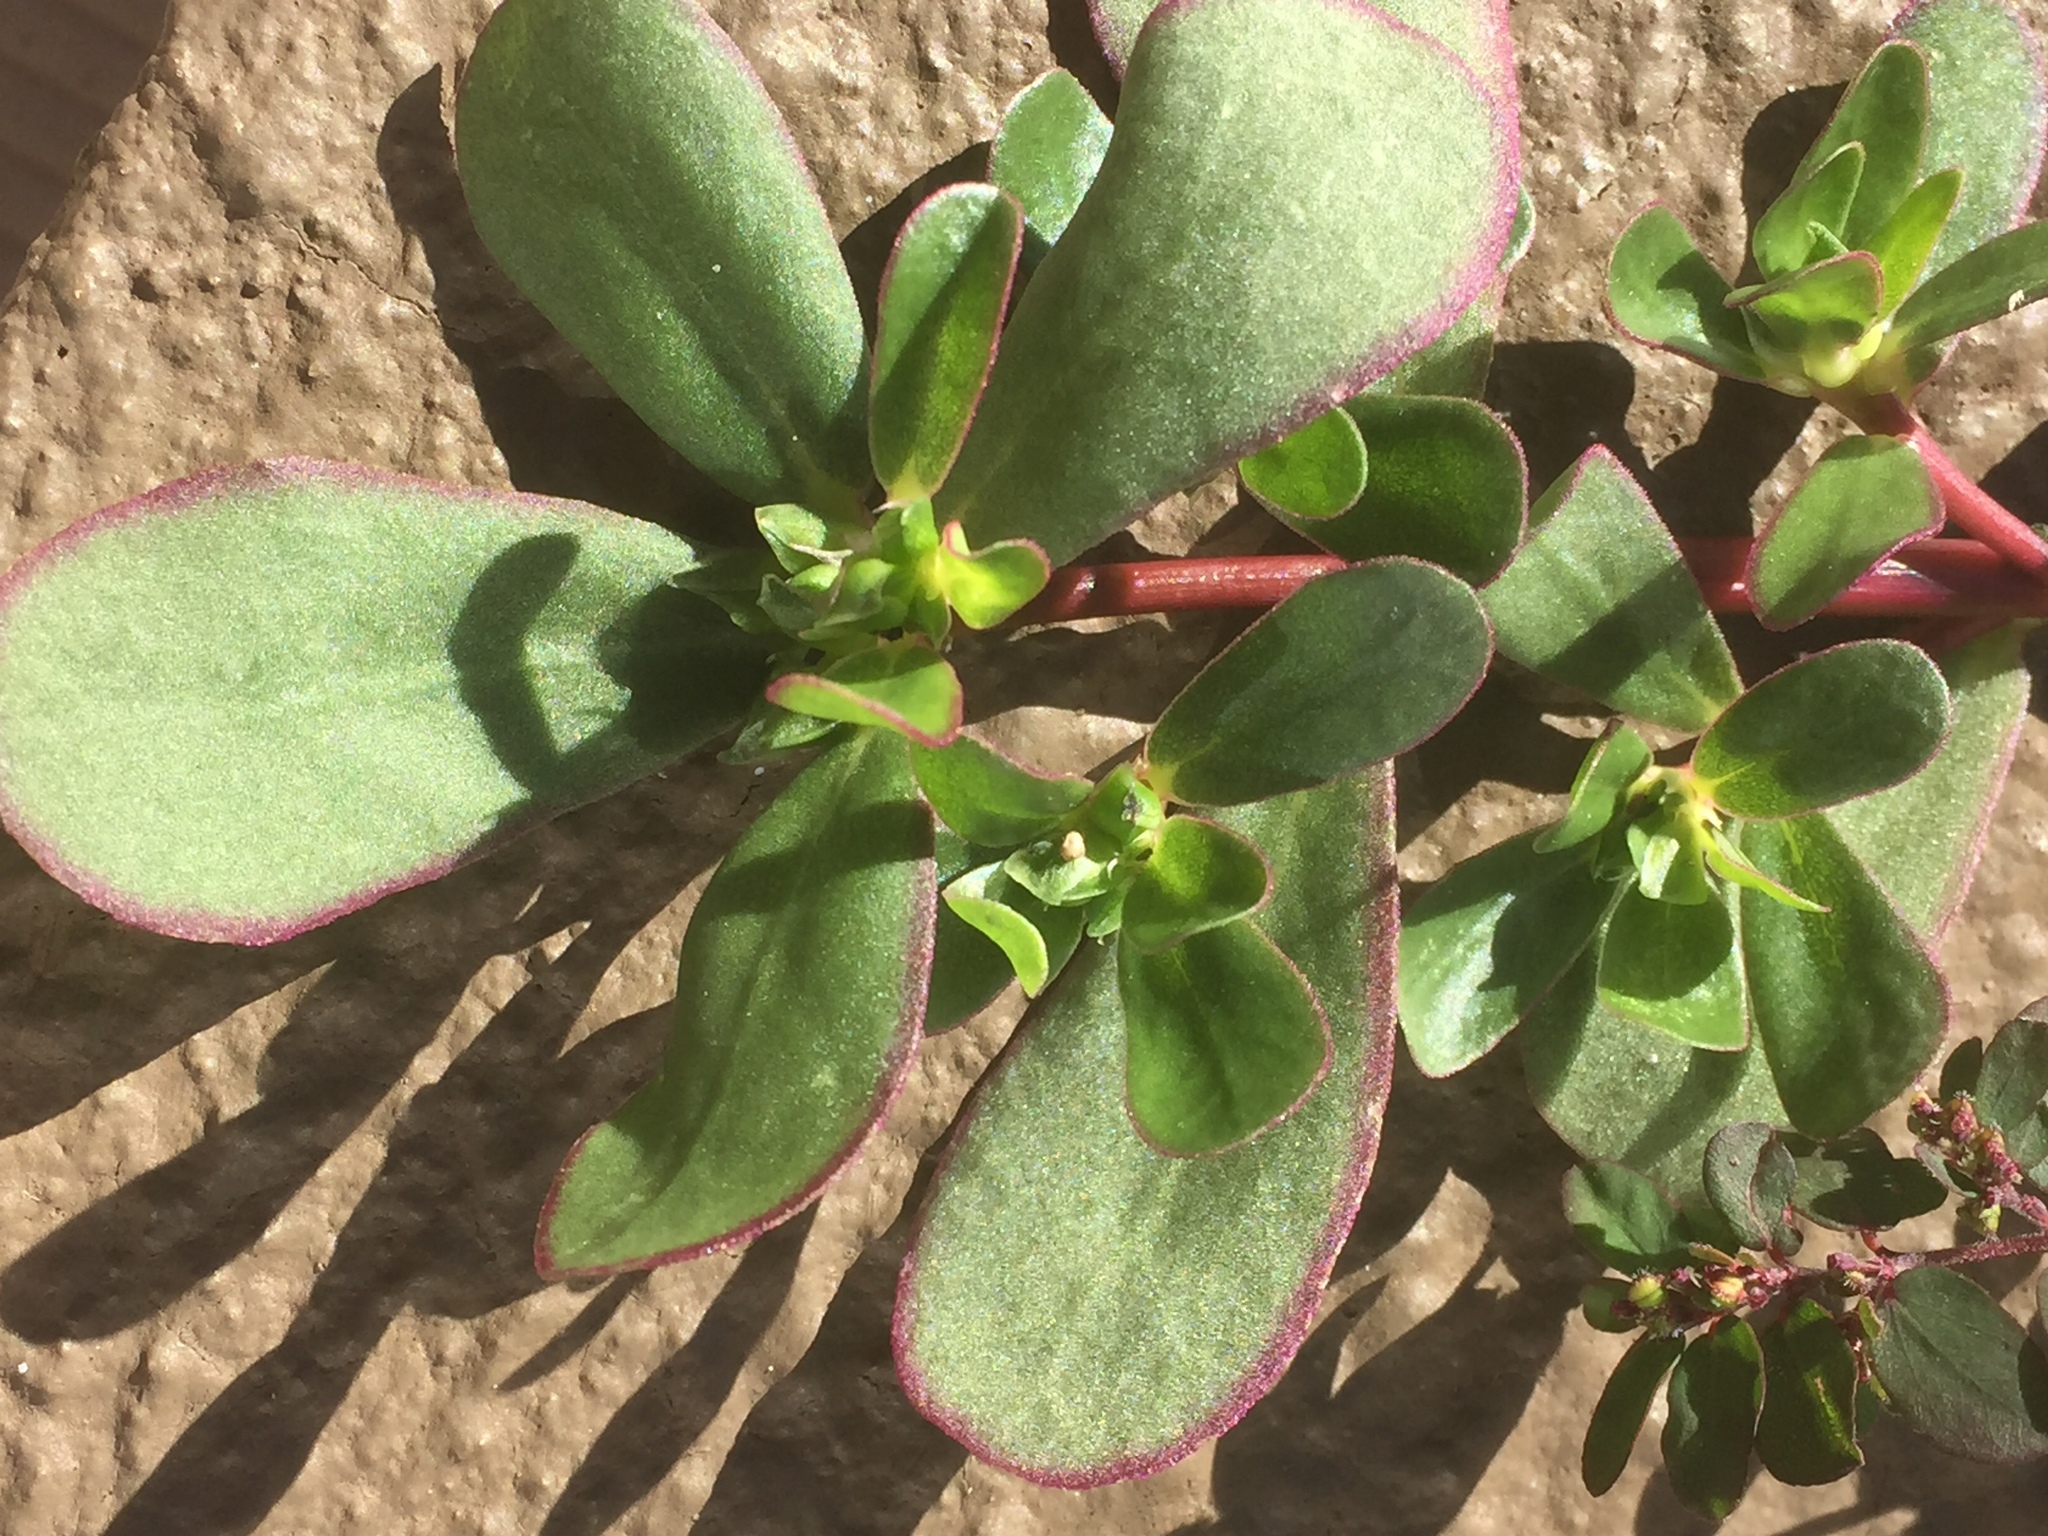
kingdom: Plantae
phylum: Tracheophyta
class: Magnoliopsida
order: Caryophyllales
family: Portulacaceae
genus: Portulaca
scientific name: Portulaca oleracea
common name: Common purslane
